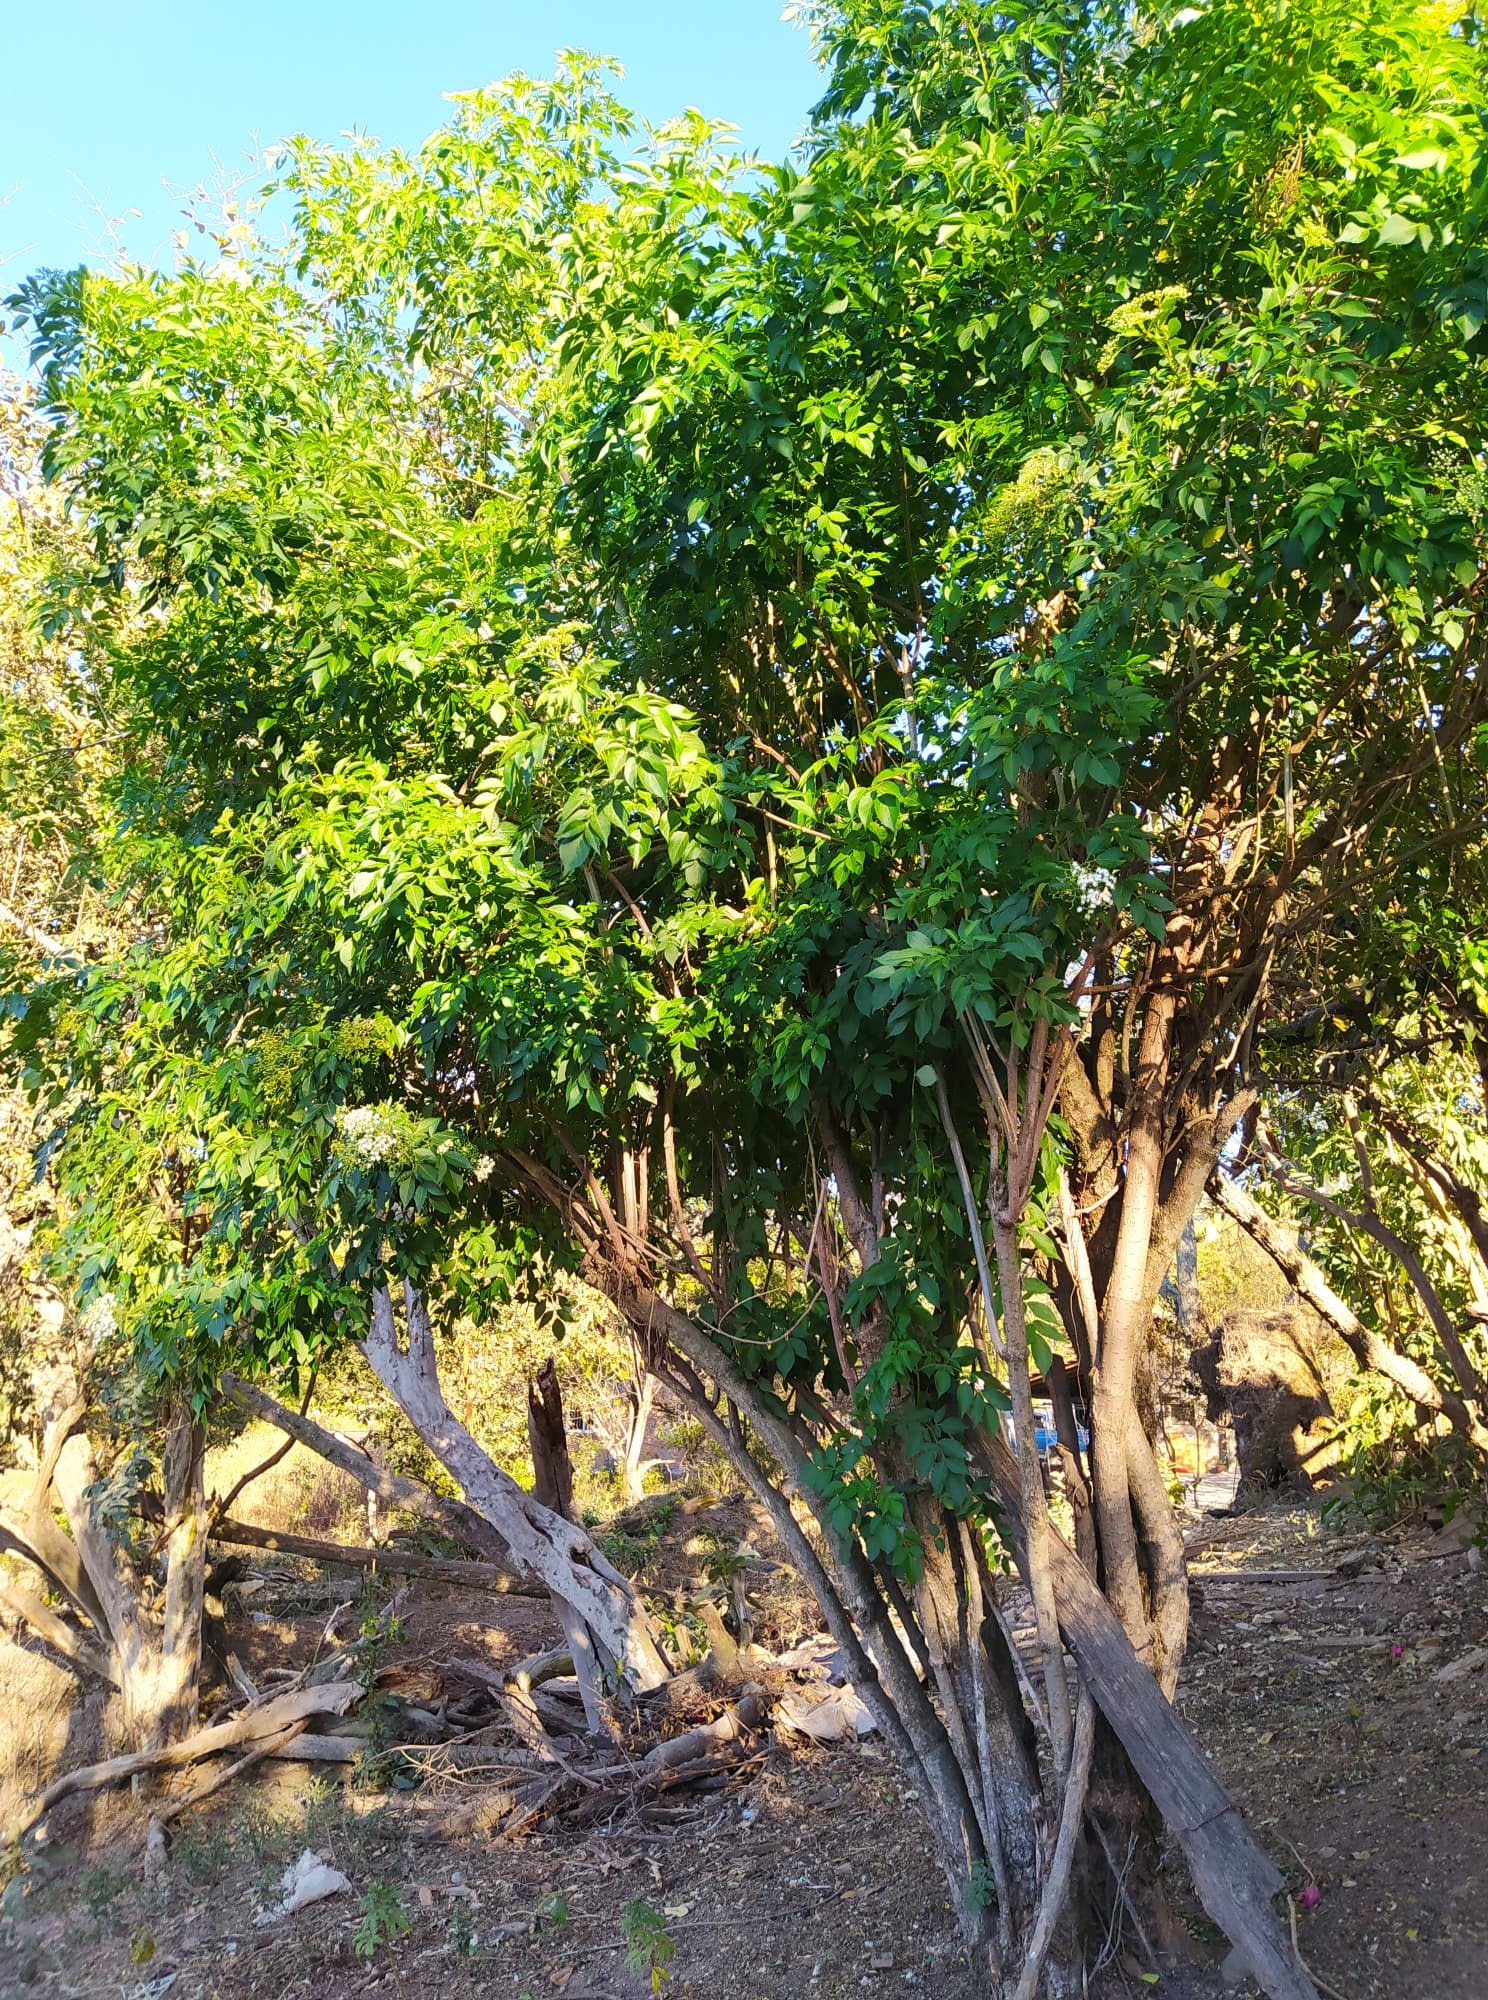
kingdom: Plantae
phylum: Tracheophyta
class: Magnoliopsida
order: Dipsacales
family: Viburnaceae
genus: Sambucus
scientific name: Sambucus canadensis
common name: American elder
